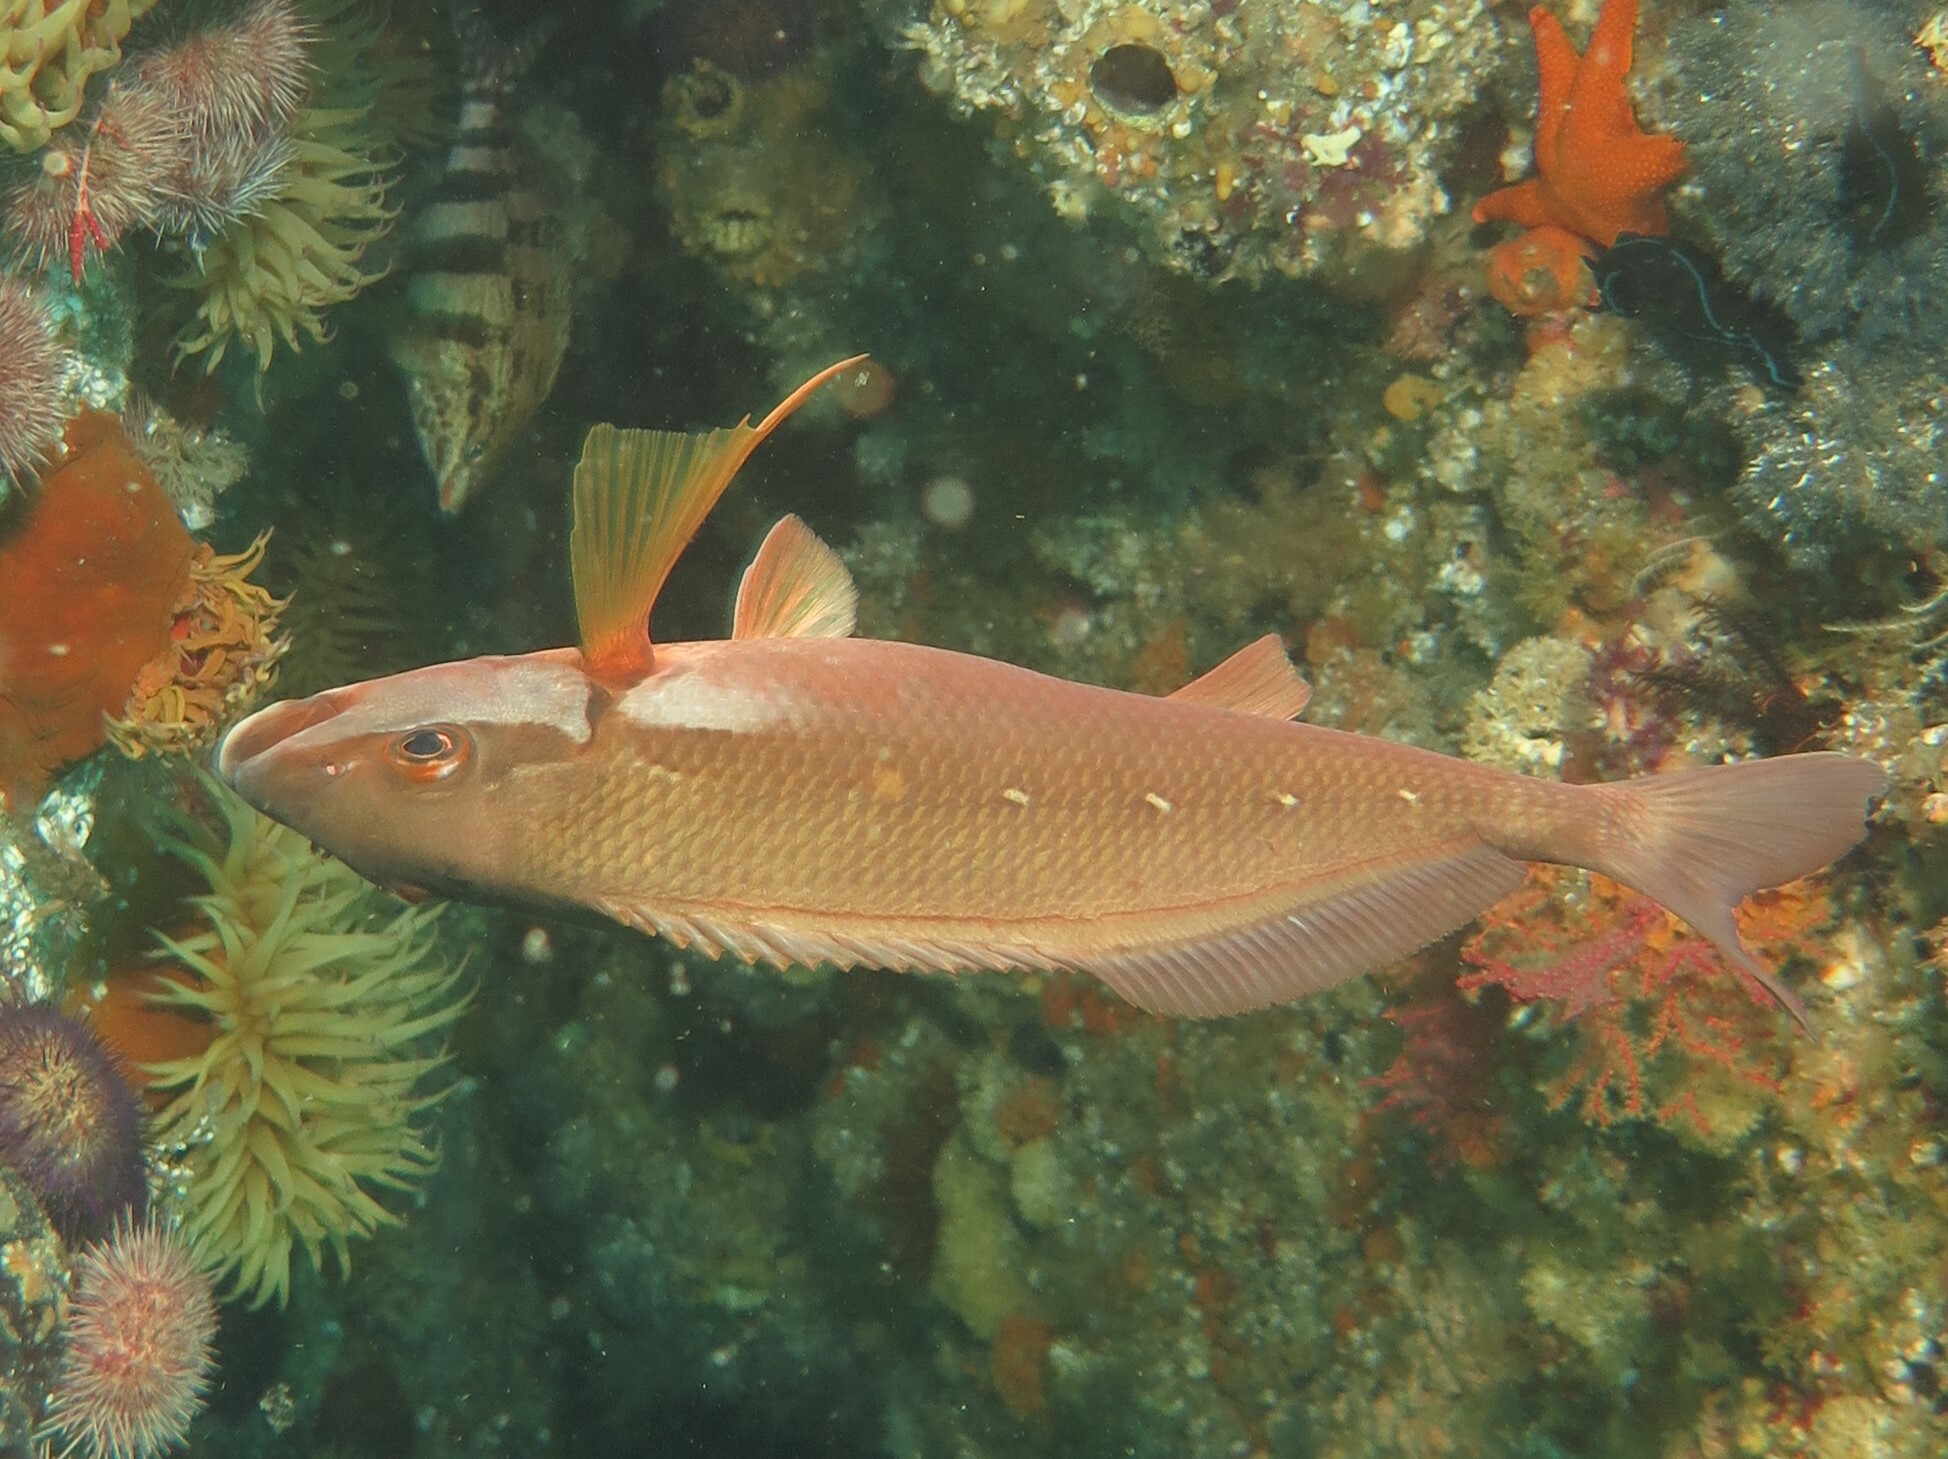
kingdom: Animalia
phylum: Chordata
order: Perciformes
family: Cheilodactylidae
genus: Chirodactylus
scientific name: Chirodactylus brachydactylus
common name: Butterfish
